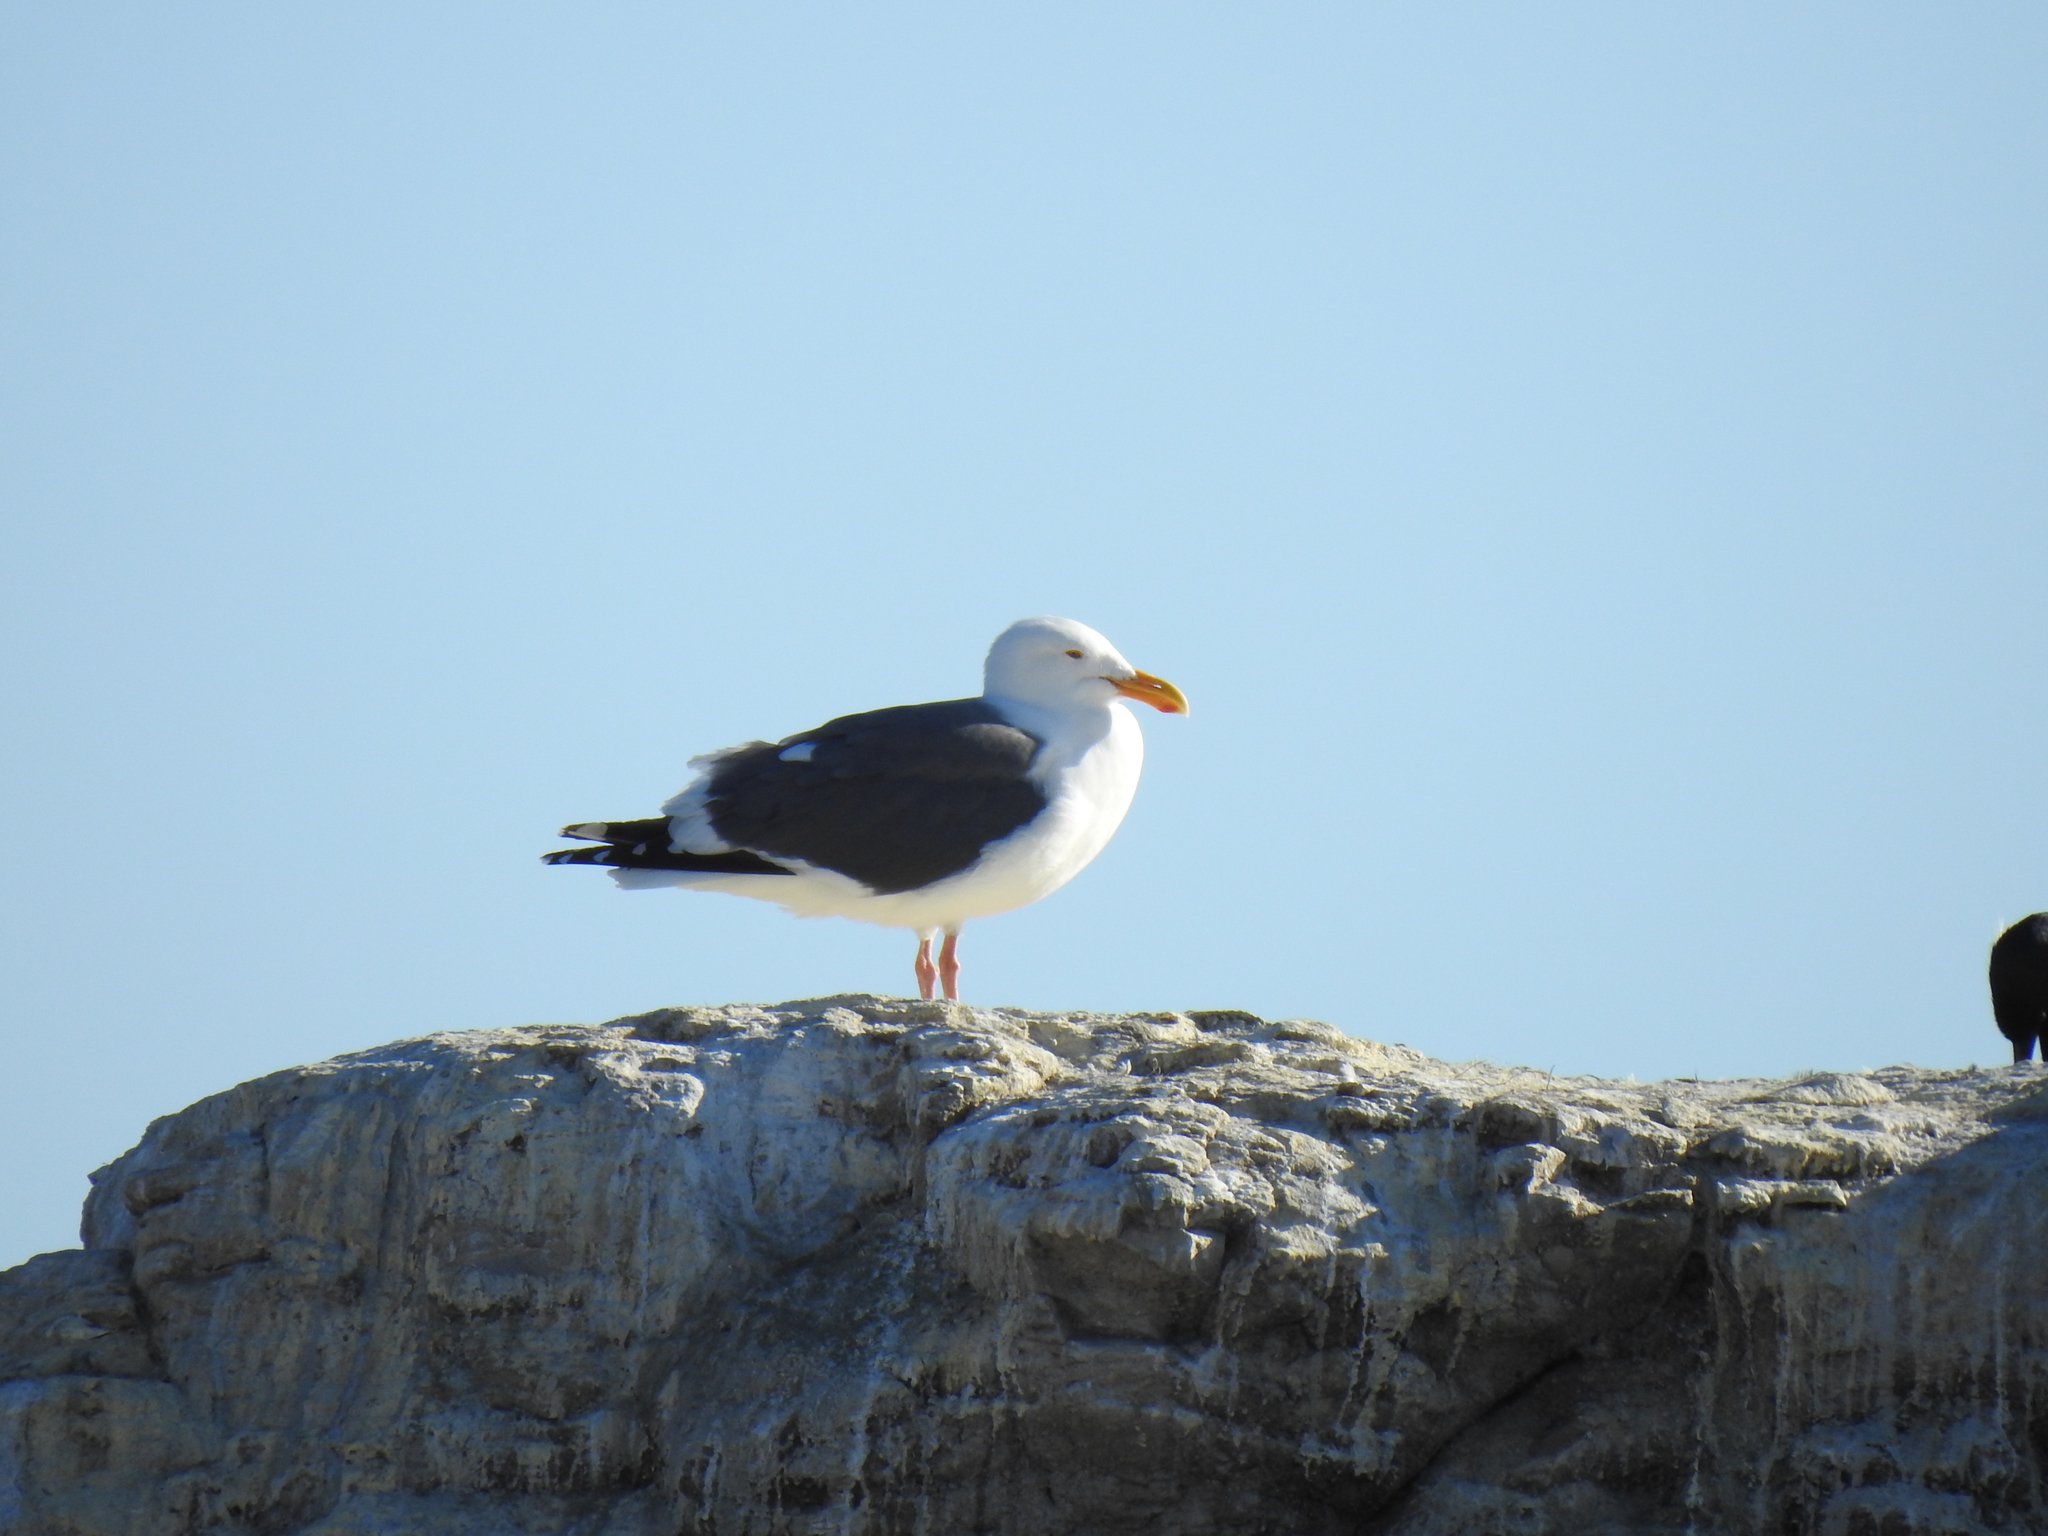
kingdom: Animalia
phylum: Chordata
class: Aves
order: Charadriiformes
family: Laridae
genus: Larus
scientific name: Larus occidentalis
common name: Western gull
